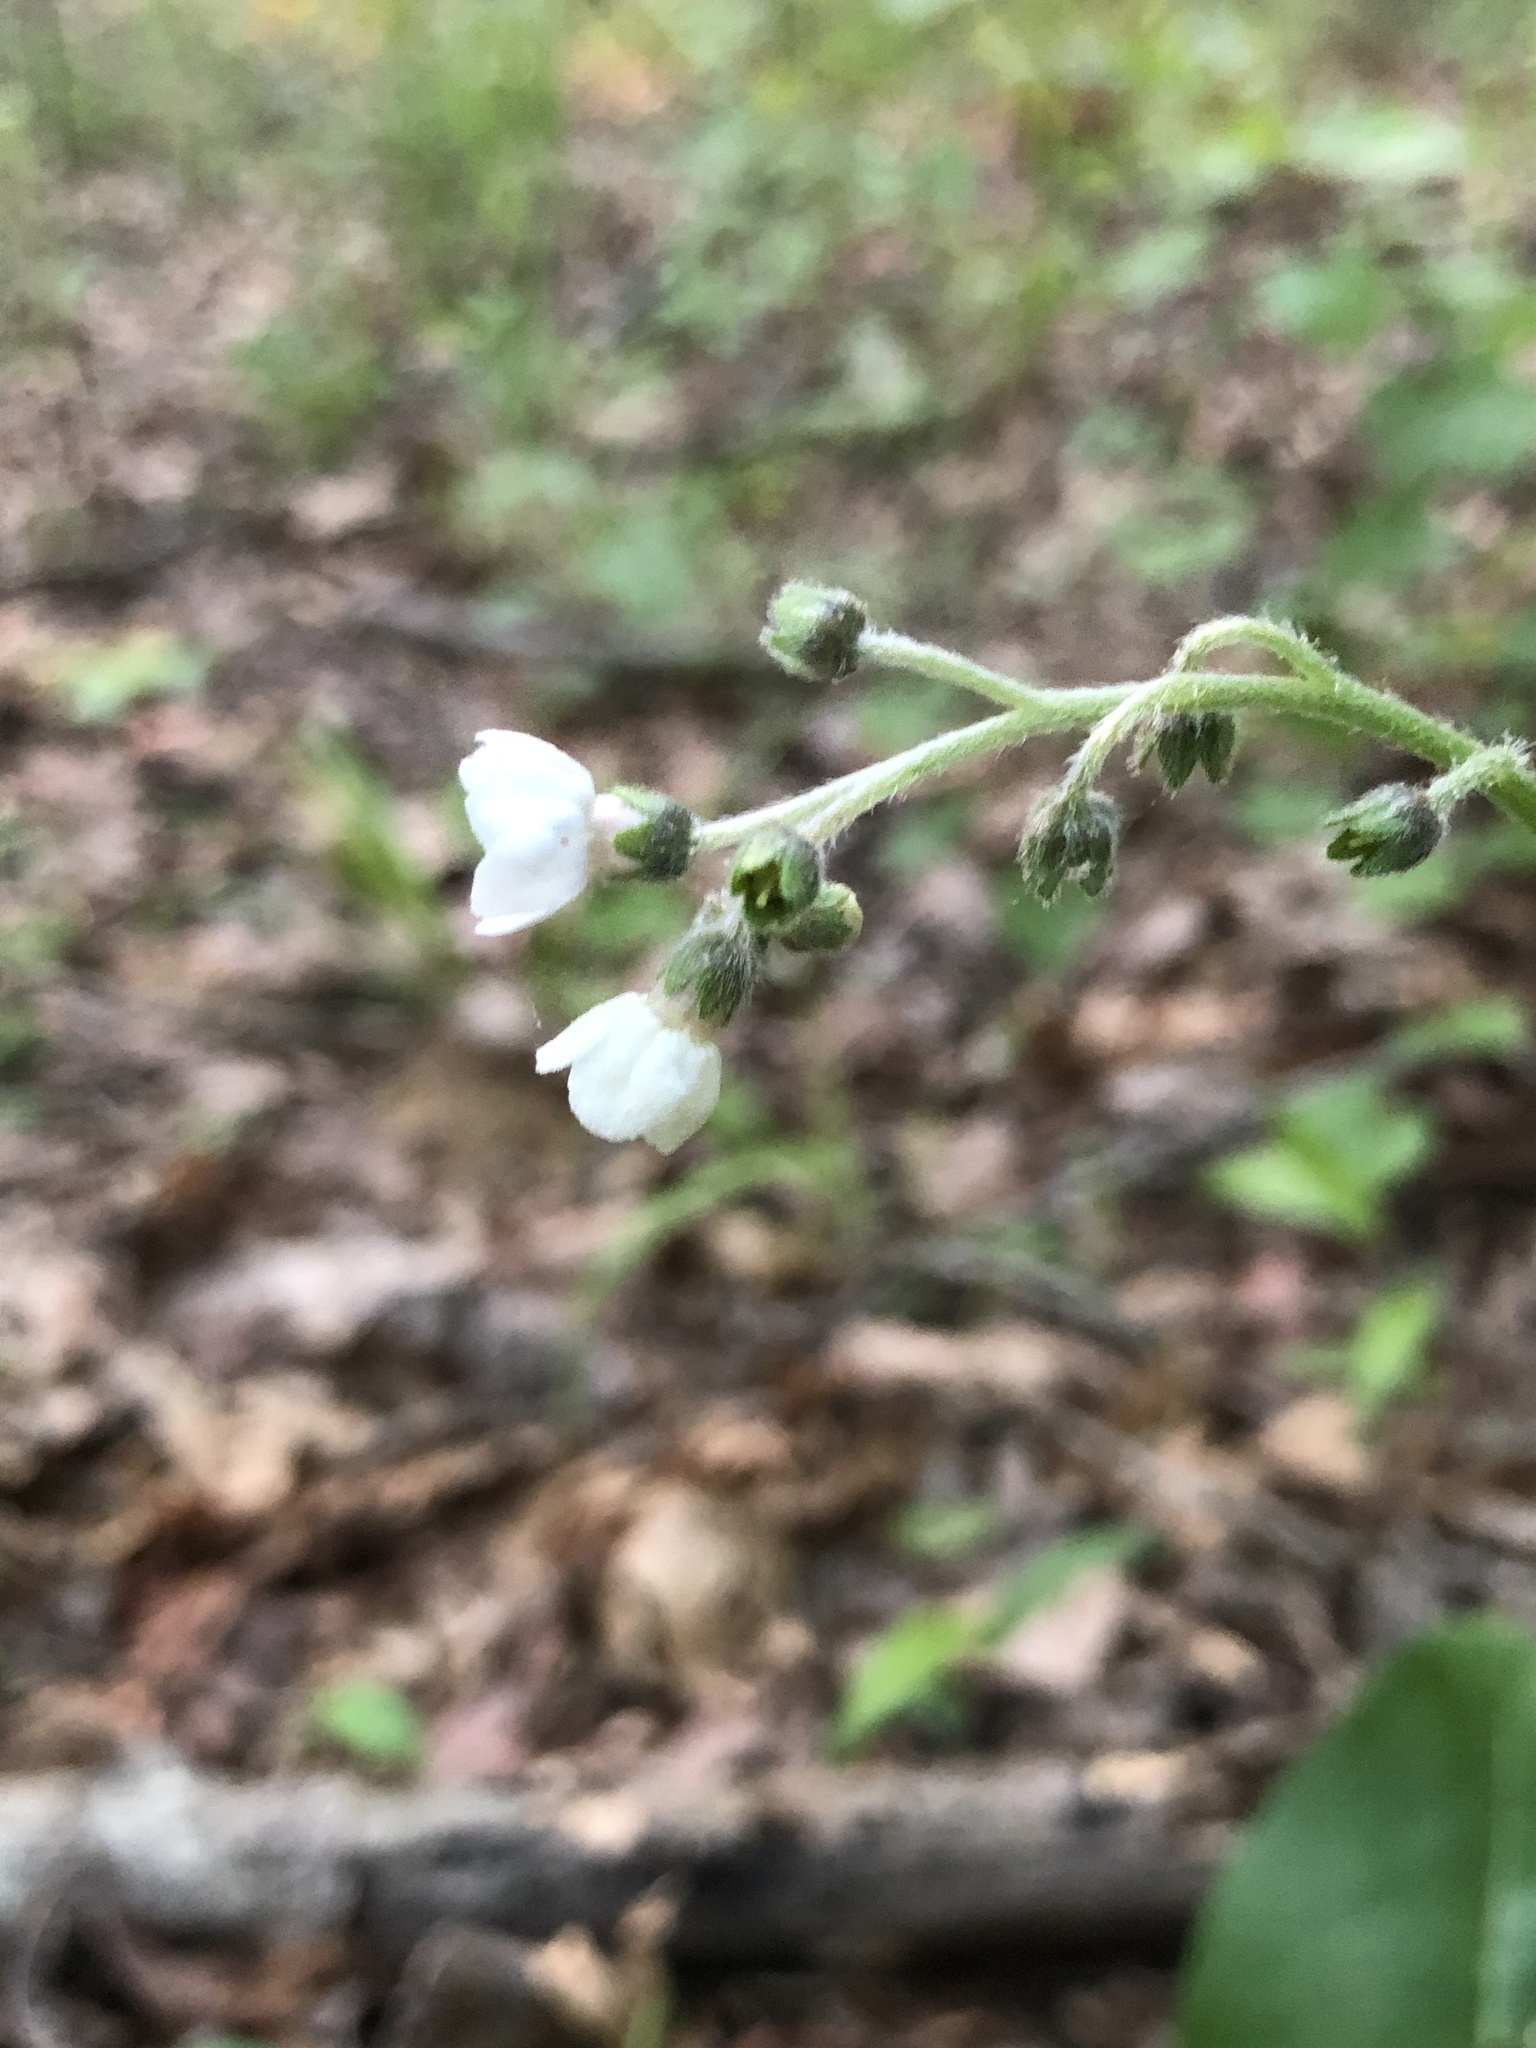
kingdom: Plantae
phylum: Tracheophyta
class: Magnoliopsida
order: Boraginales
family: Boraginaceae
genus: Andersonglossum
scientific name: Andersonglossum virginianum
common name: Wild comfrey
